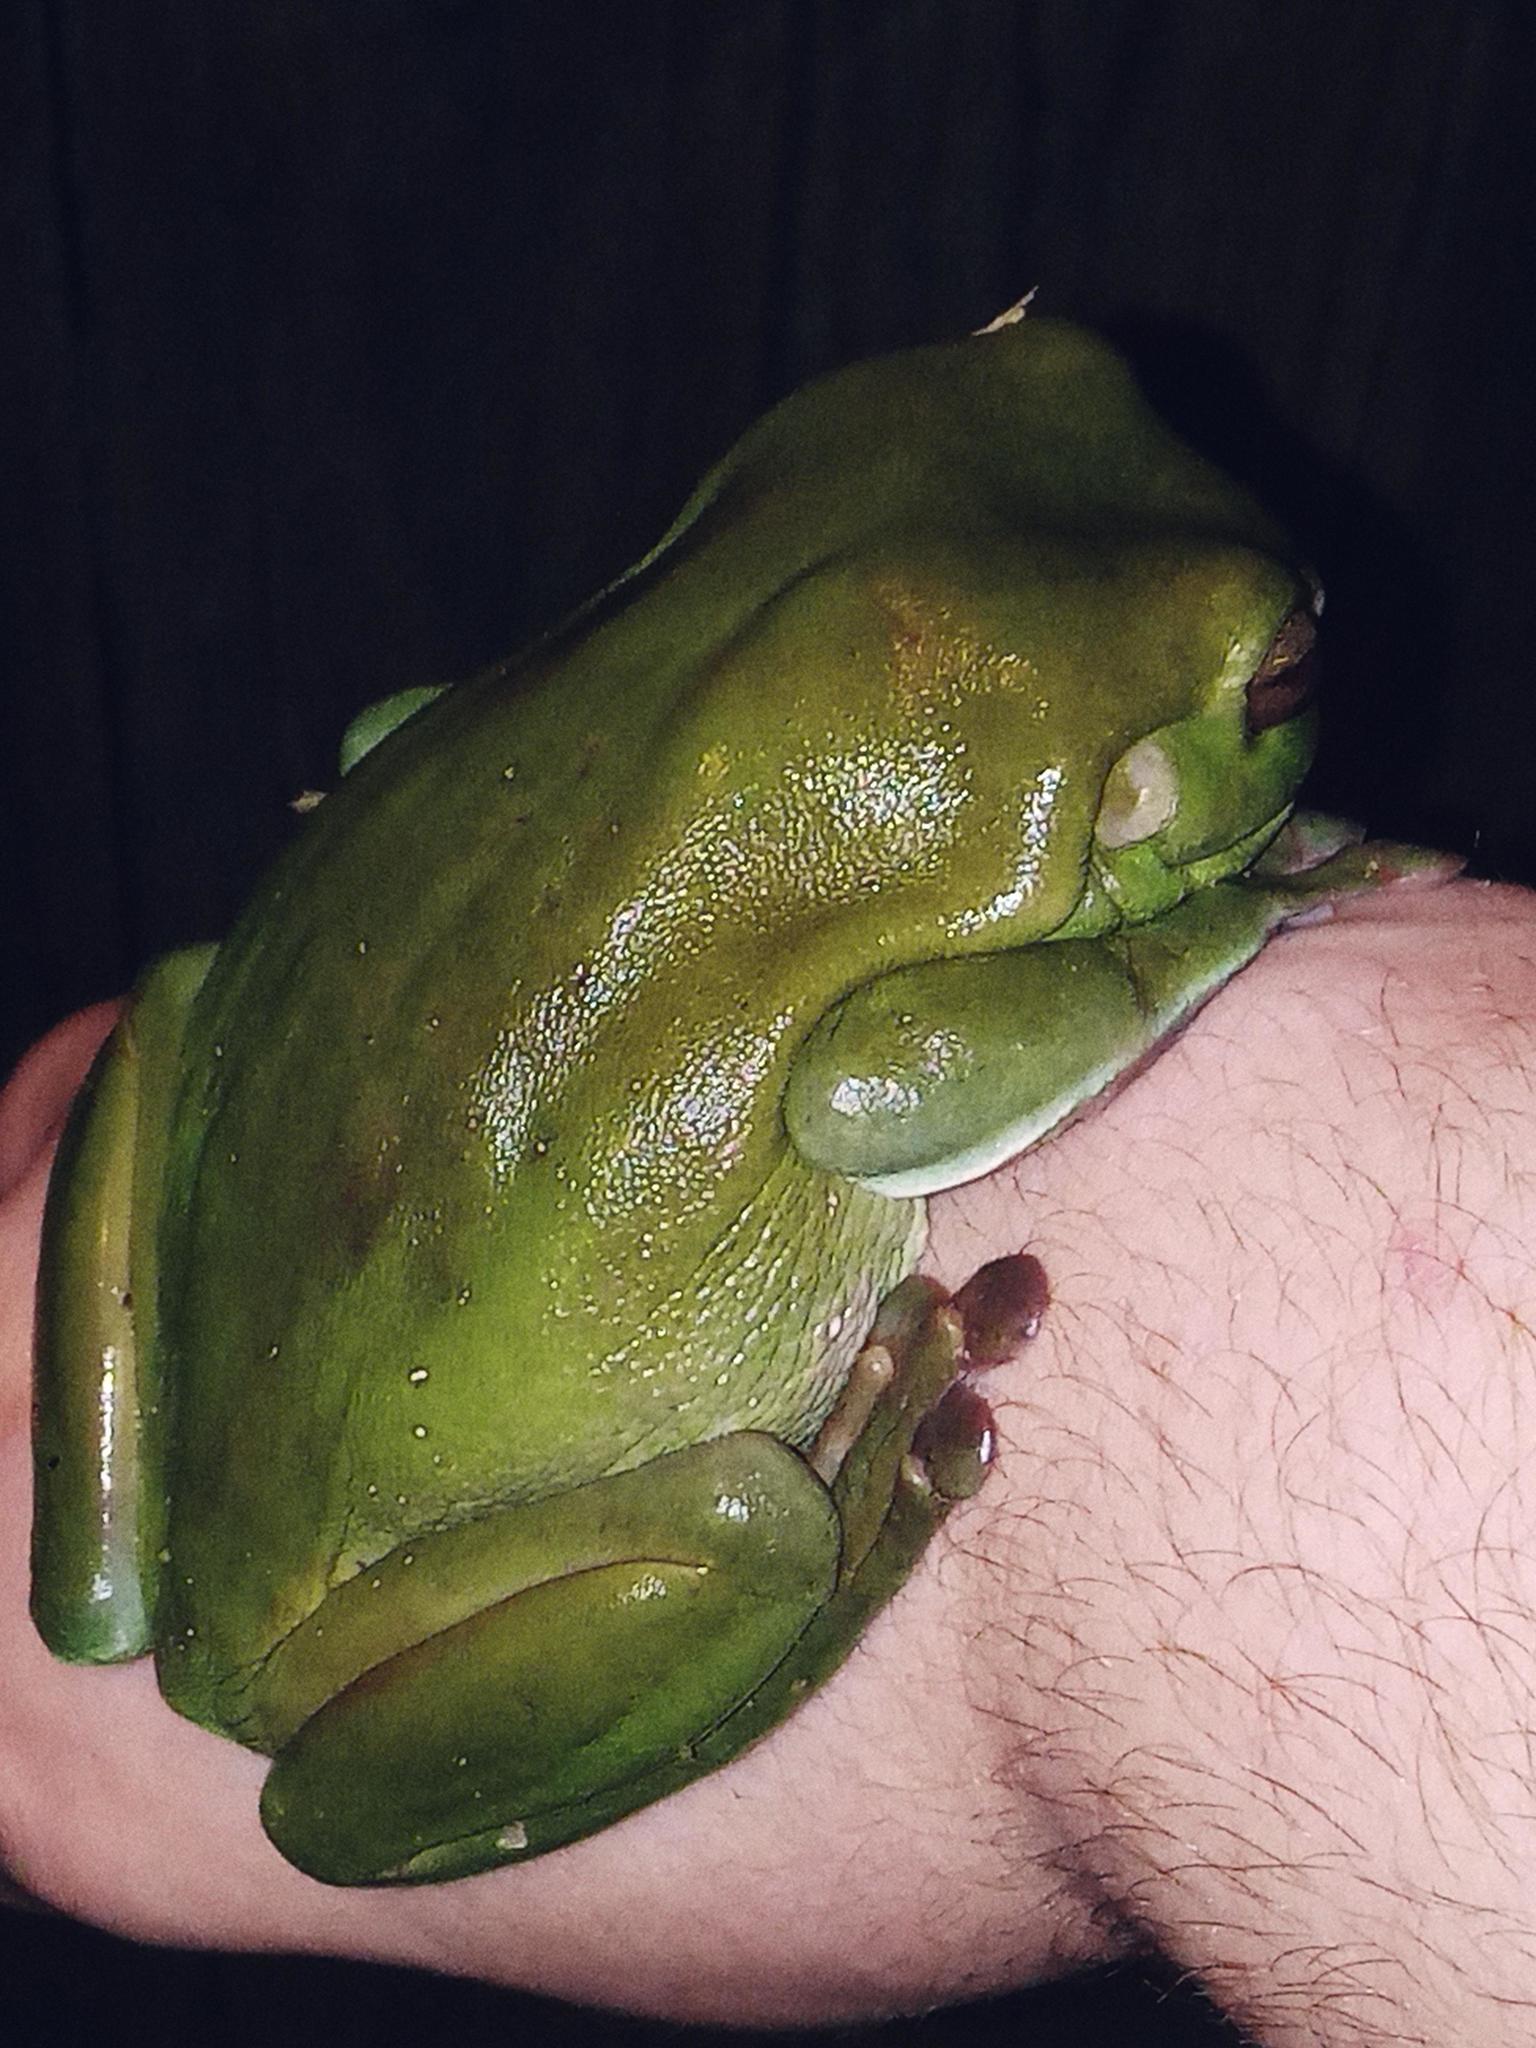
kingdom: Animalia
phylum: Chordata
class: Amphibia
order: Anura
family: Pelodryadidae
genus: Ranoidea
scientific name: Ranoidea caerulea
